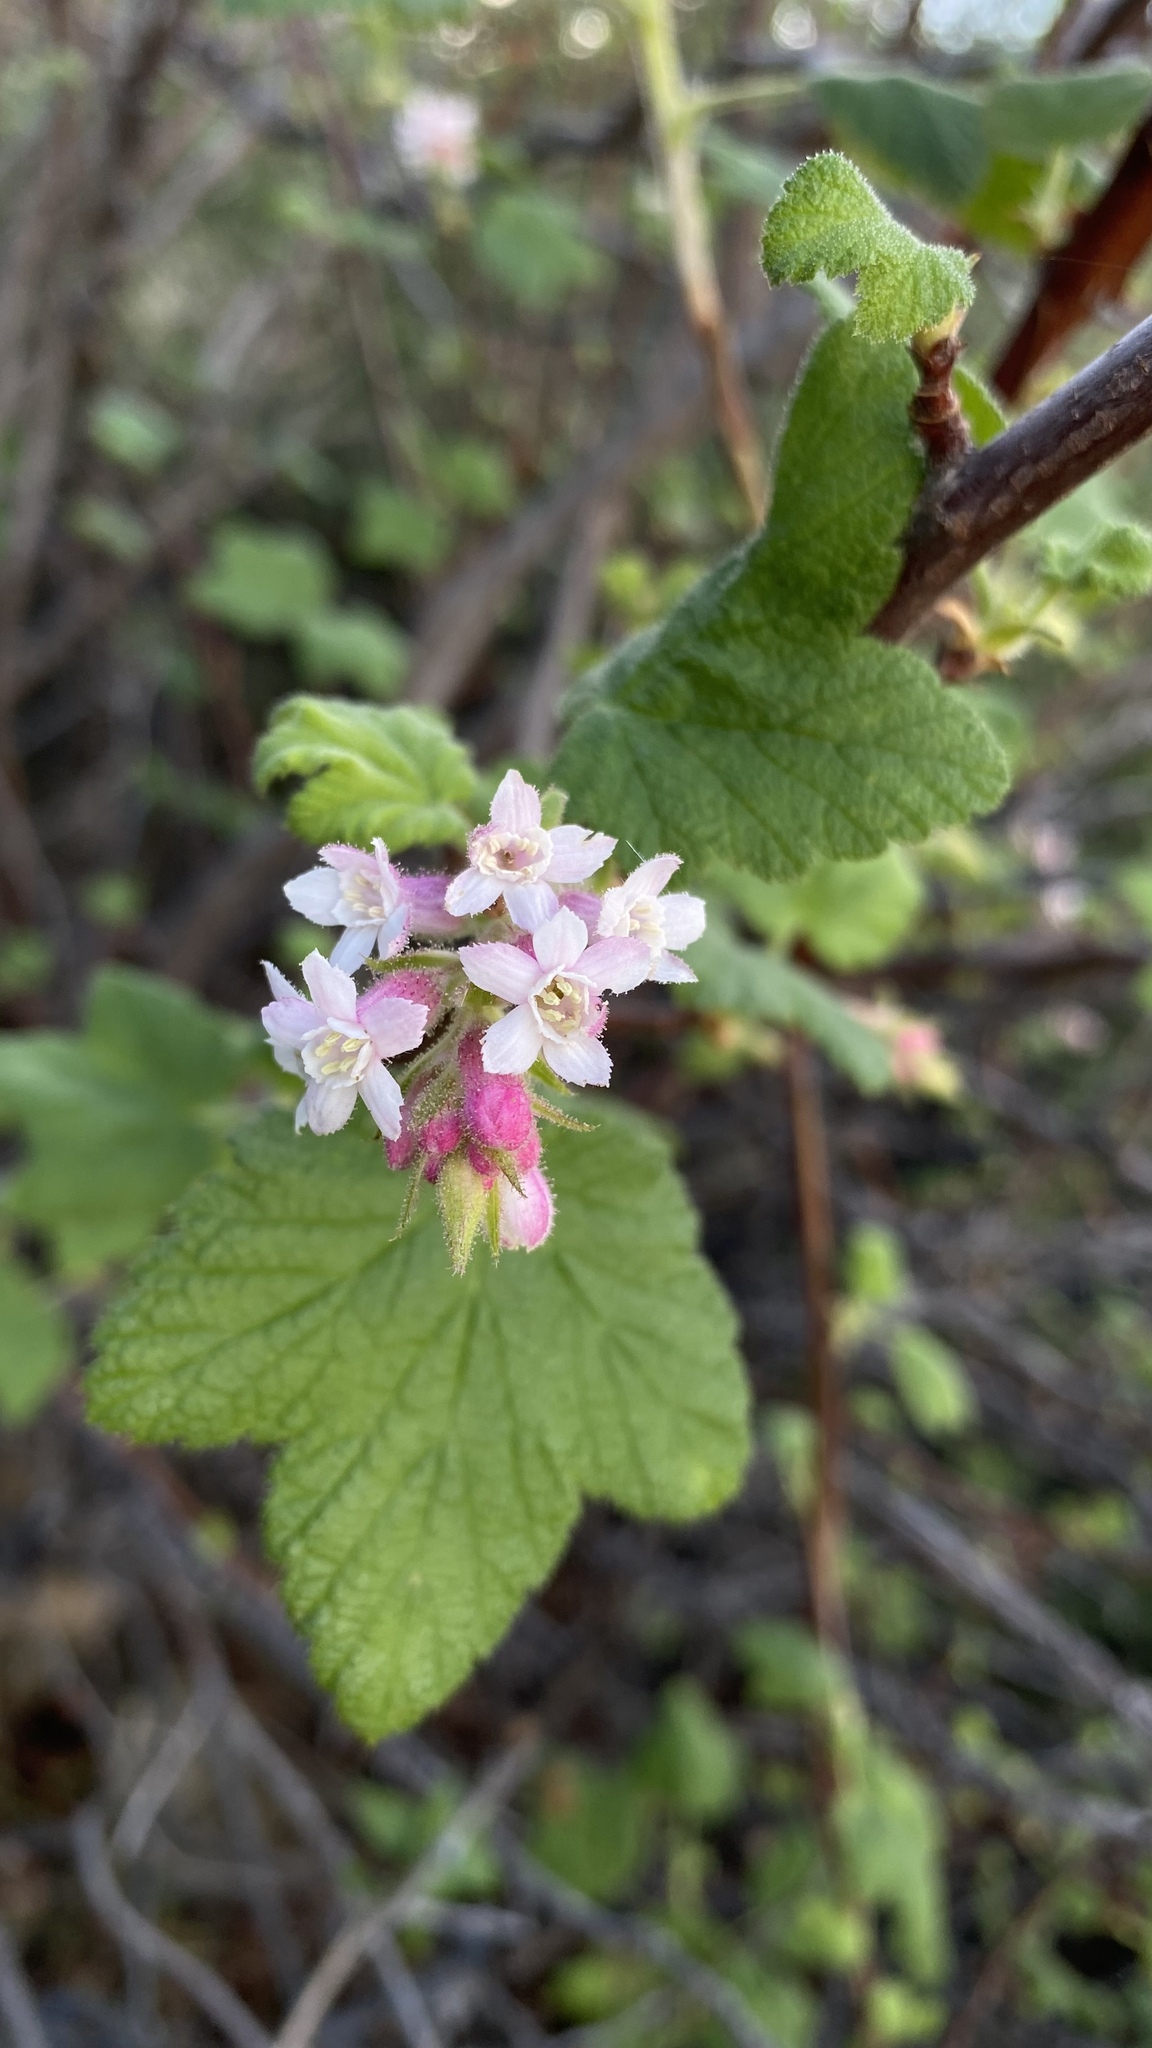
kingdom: Plantae
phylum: Tracheophyta
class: Magnoliopsida
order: Saxifragales
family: Grossulariaceae
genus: Ribes
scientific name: Ribes malvaceum
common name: Chaparral currant
